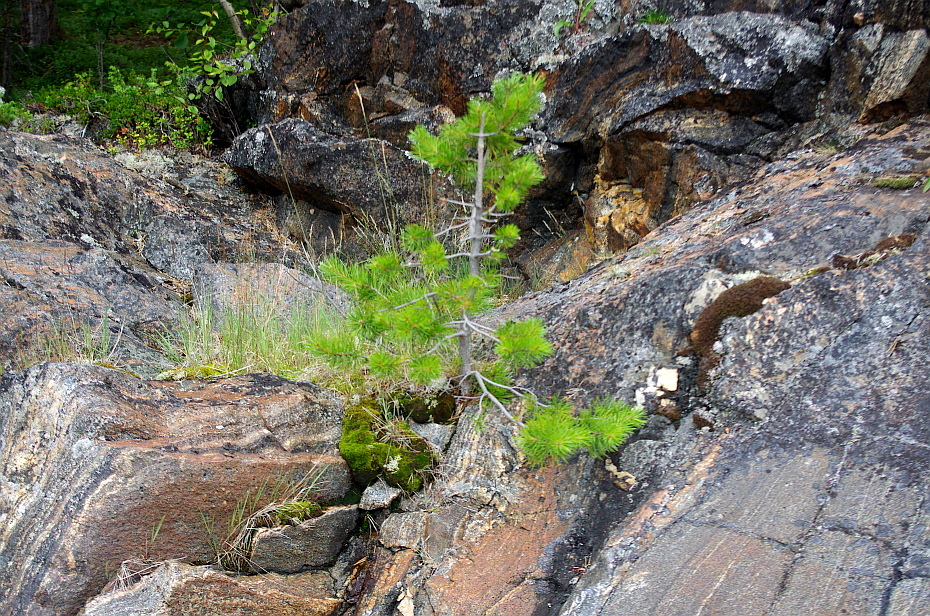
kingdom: Plantae
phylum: Tracheophyta
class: Pinopsida
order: Pinales
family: Pinaceae
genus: Pinus
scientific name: Pinus sylvestris
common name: Scots pine
